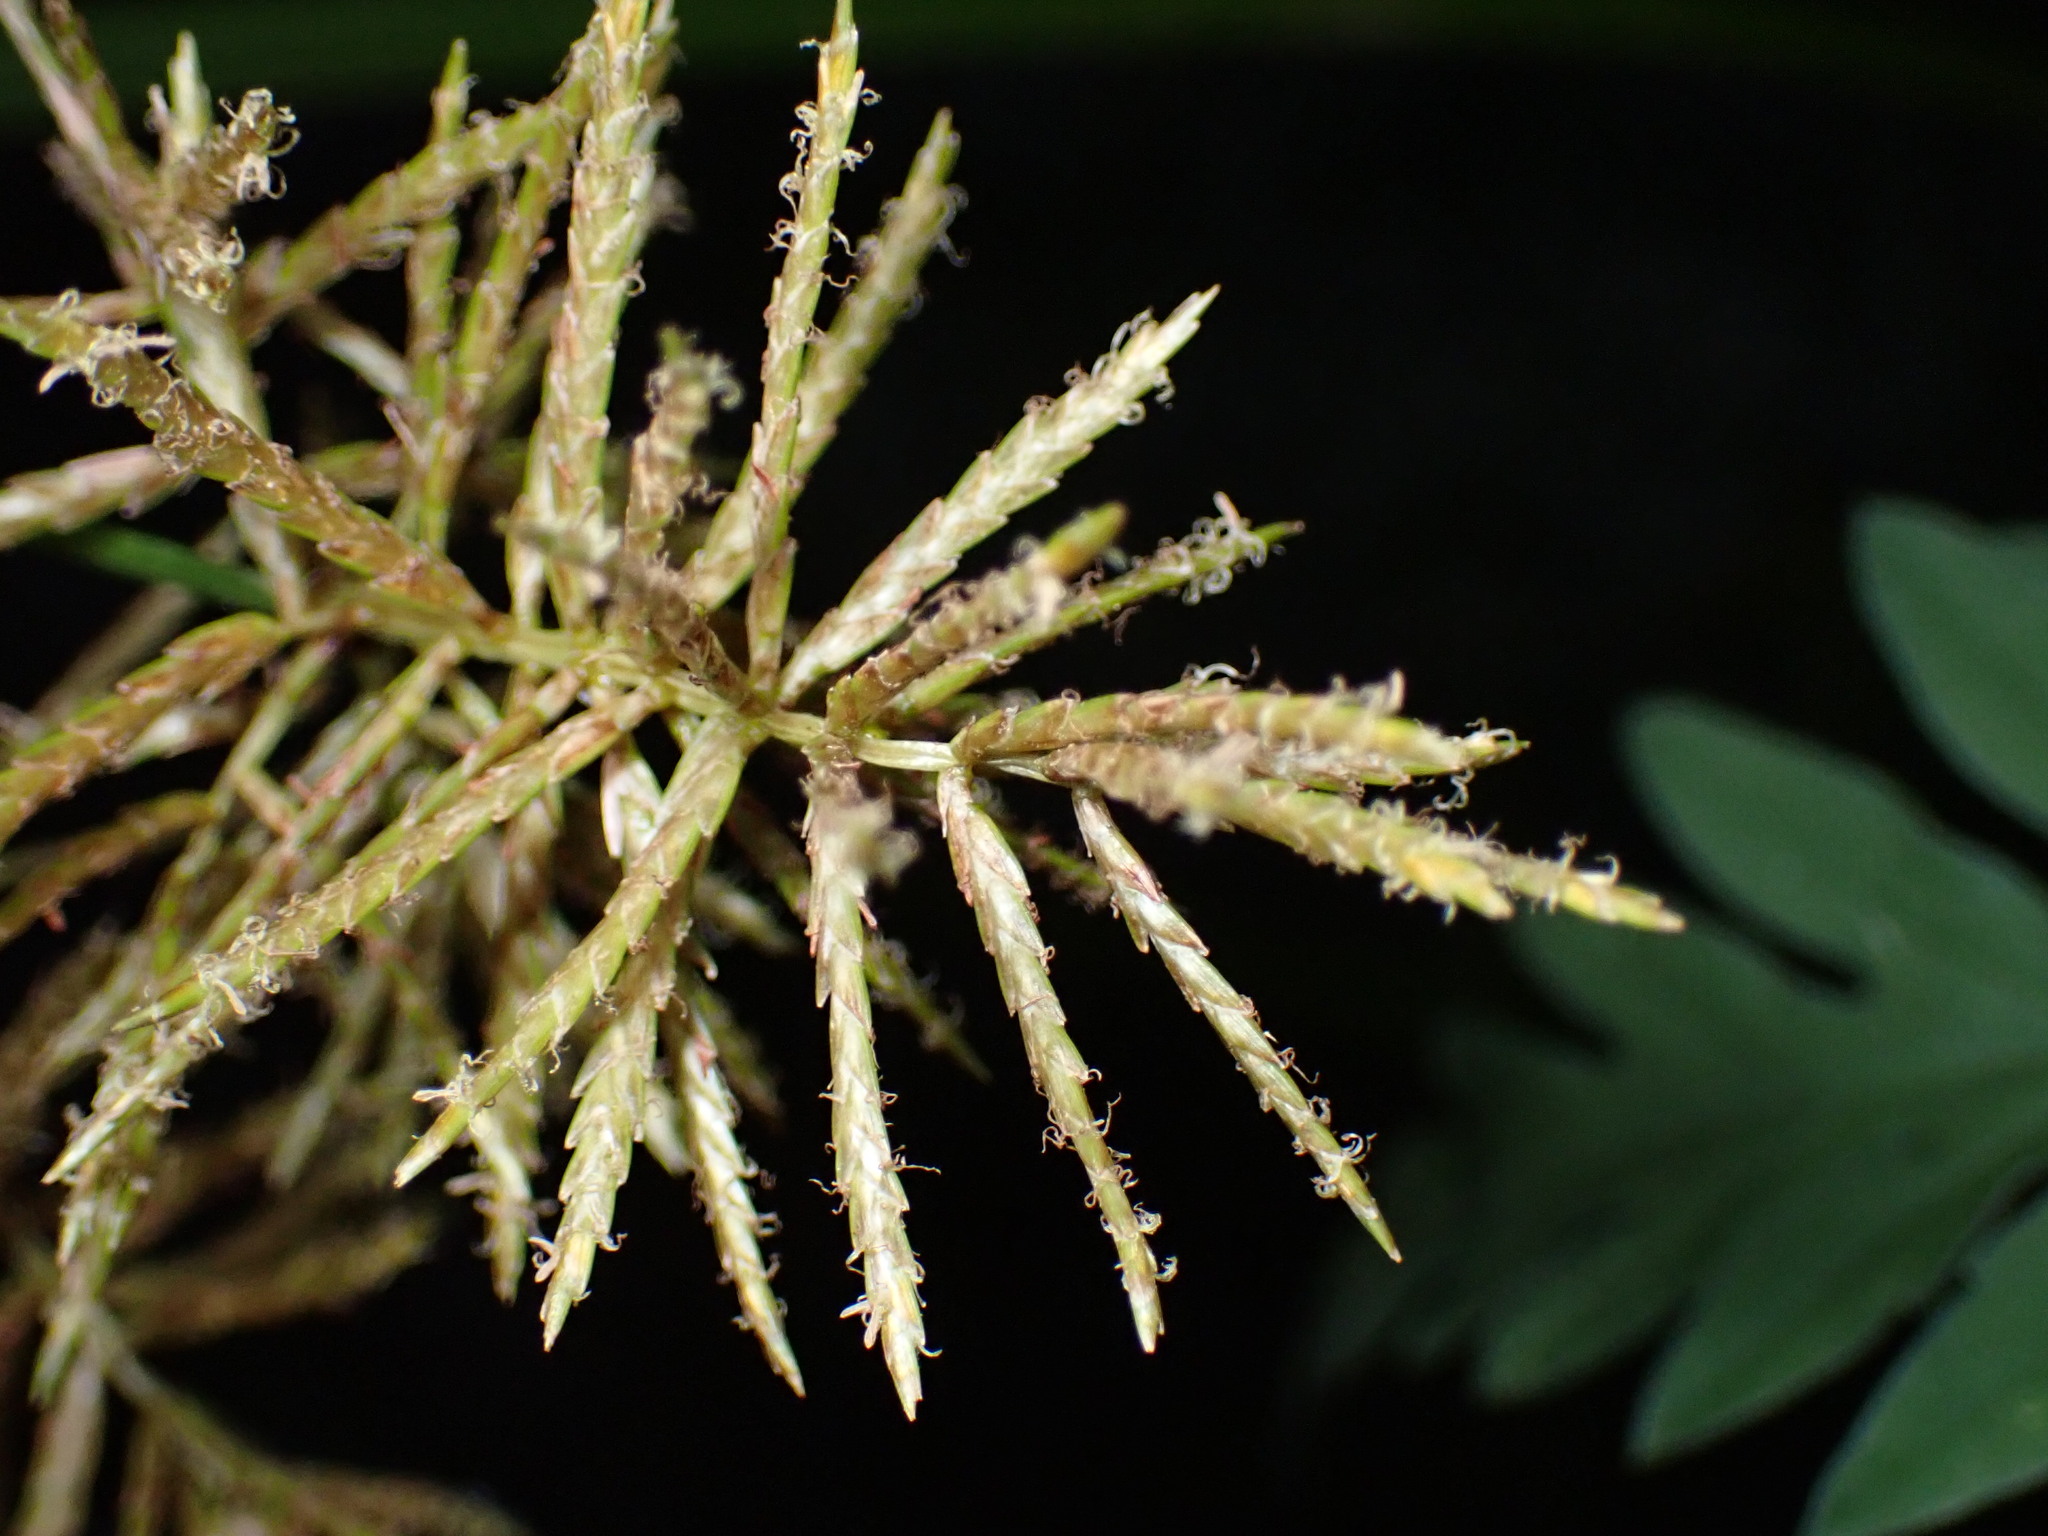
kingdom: Plantae
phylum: Tracheophyta
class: Liliopsida
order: Poales
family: Cyperaceae
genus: Cyperus
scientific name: Cyperus esculentus
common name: Yellow nutsedge
